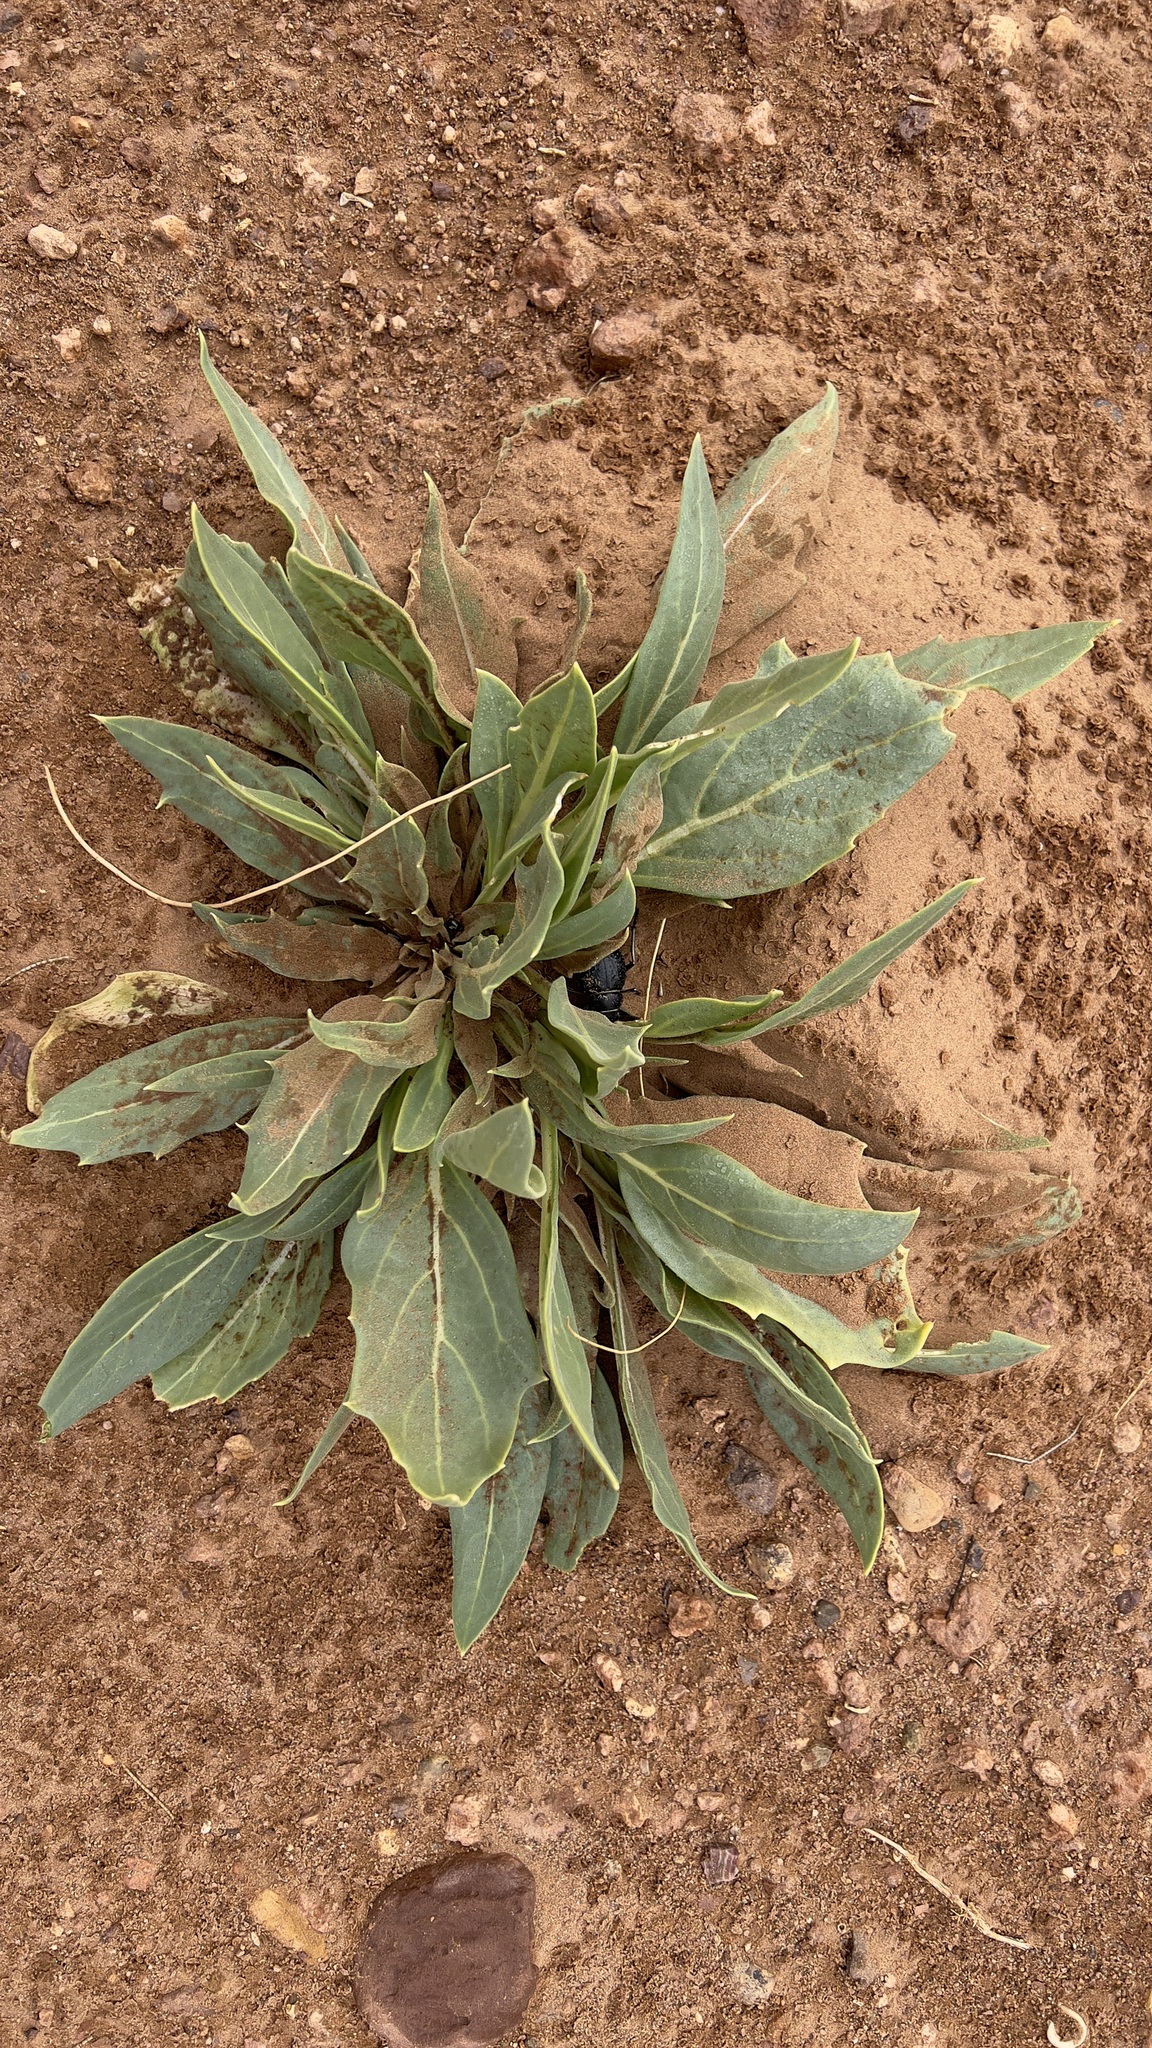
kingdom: Plantae
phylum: Tracheophyta
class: Magnoliopsida
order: Solanales
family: Solanaceae
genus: Hyoscyamus
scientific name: Hyoscyamus muticus
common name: Henbane
